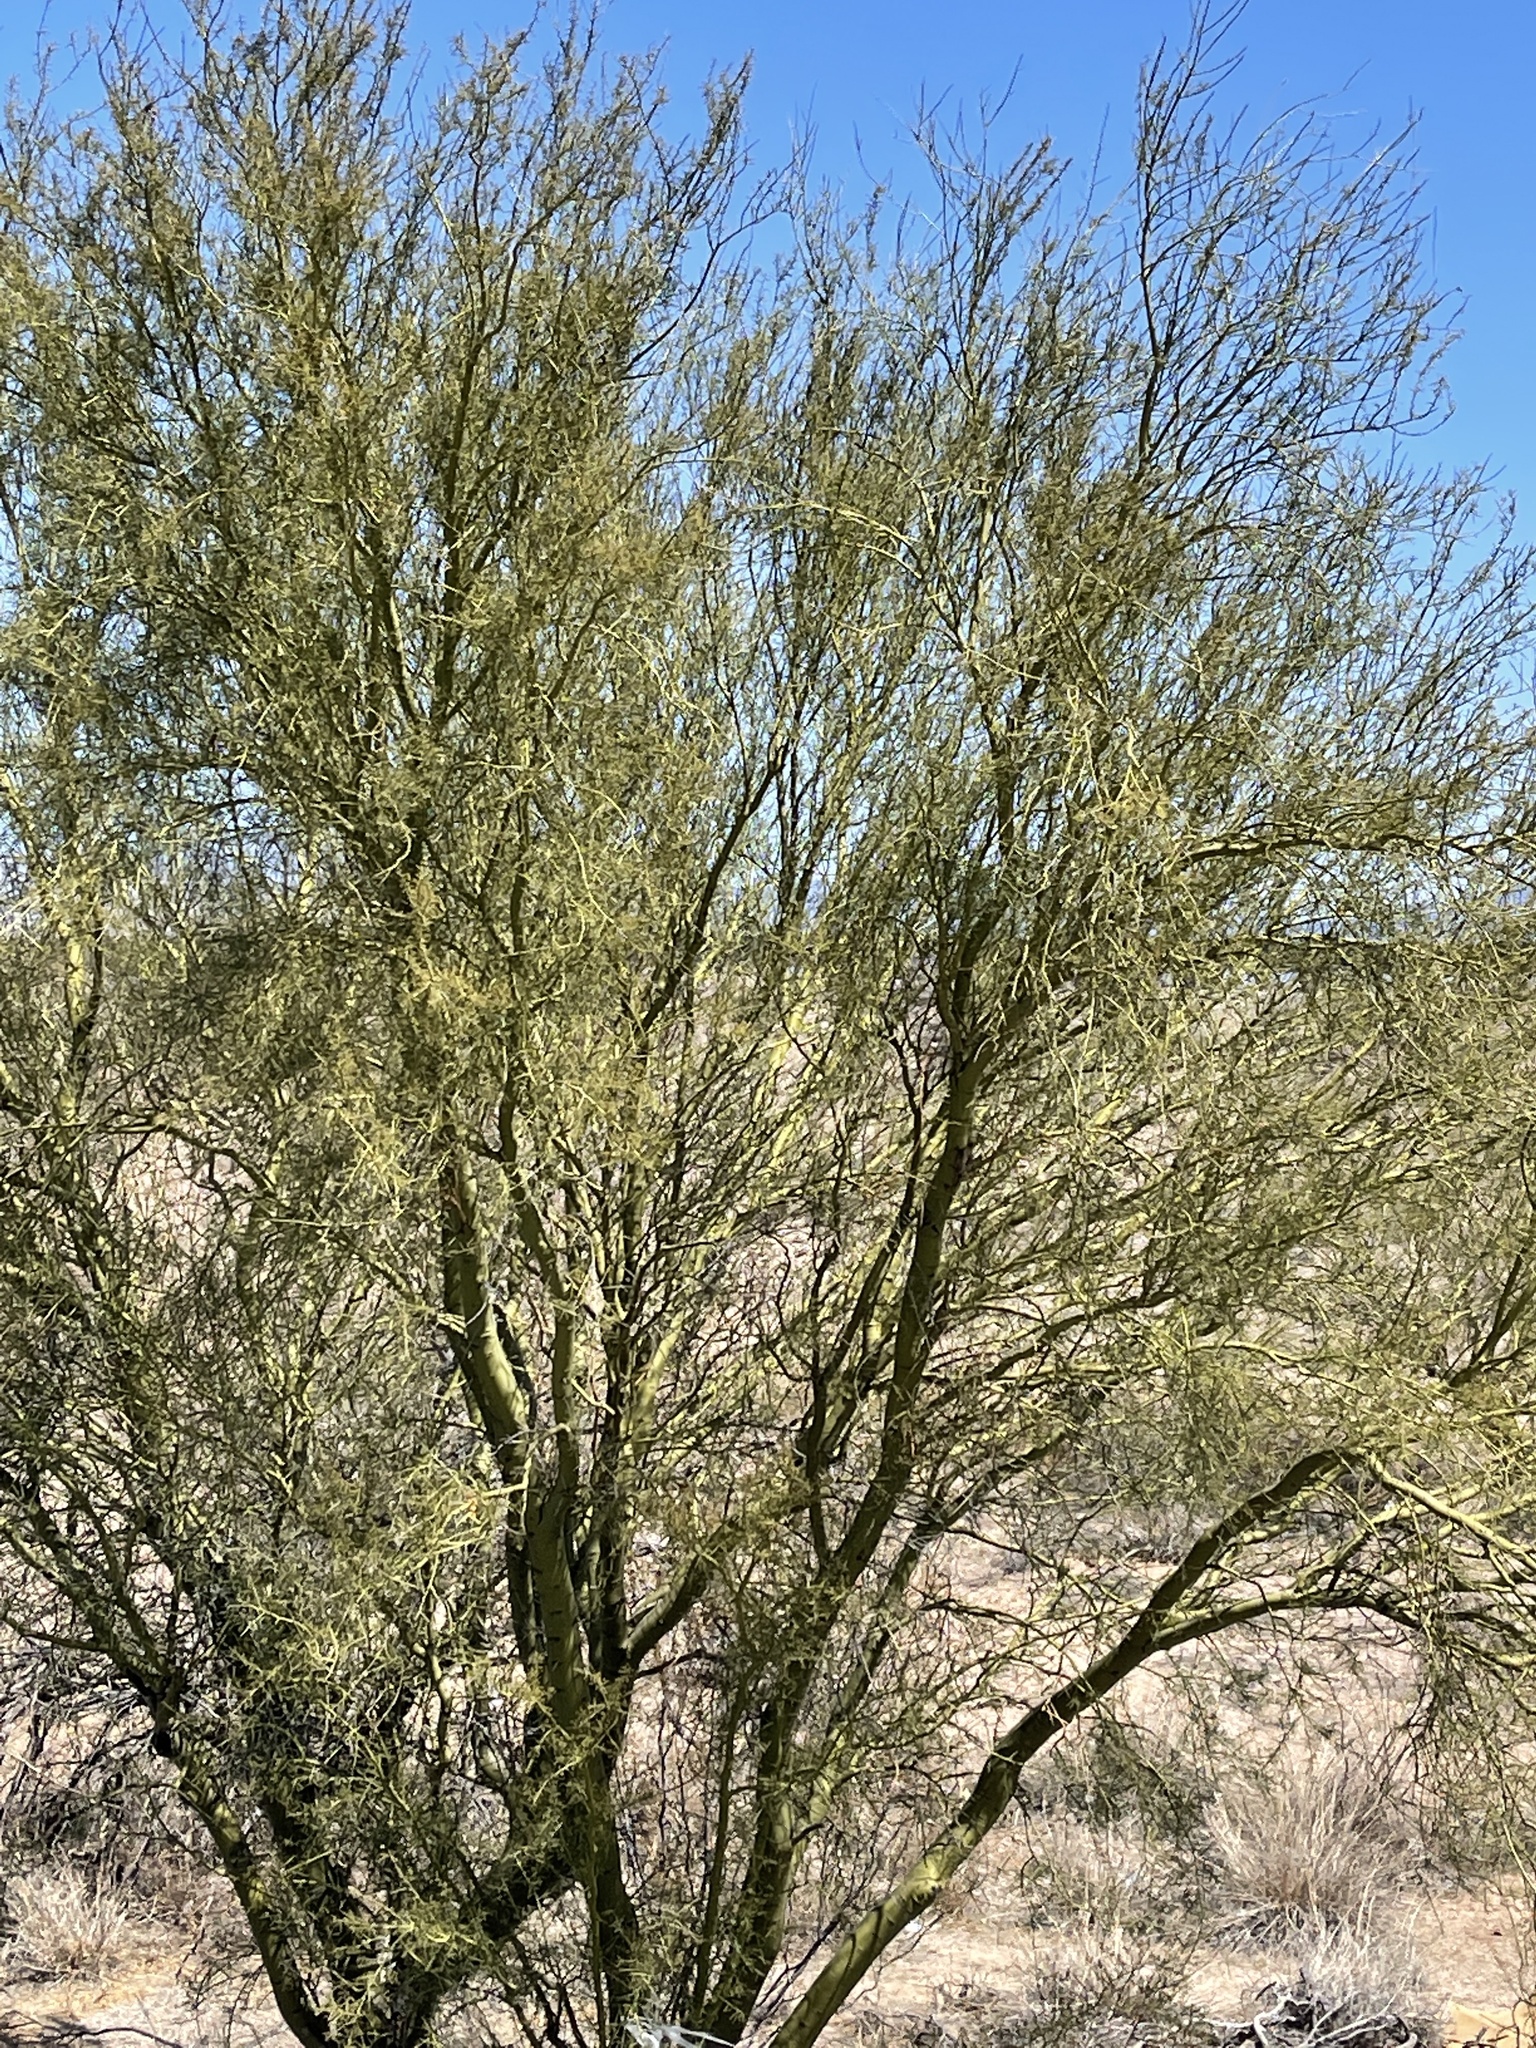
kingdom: Plantae
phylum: Tracheophyta
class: Magnoliopsida
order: Fabales
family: Fabaceae
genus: Parkinsonia
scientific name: Parkinsonia microphylla
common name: Yellow paloverde
